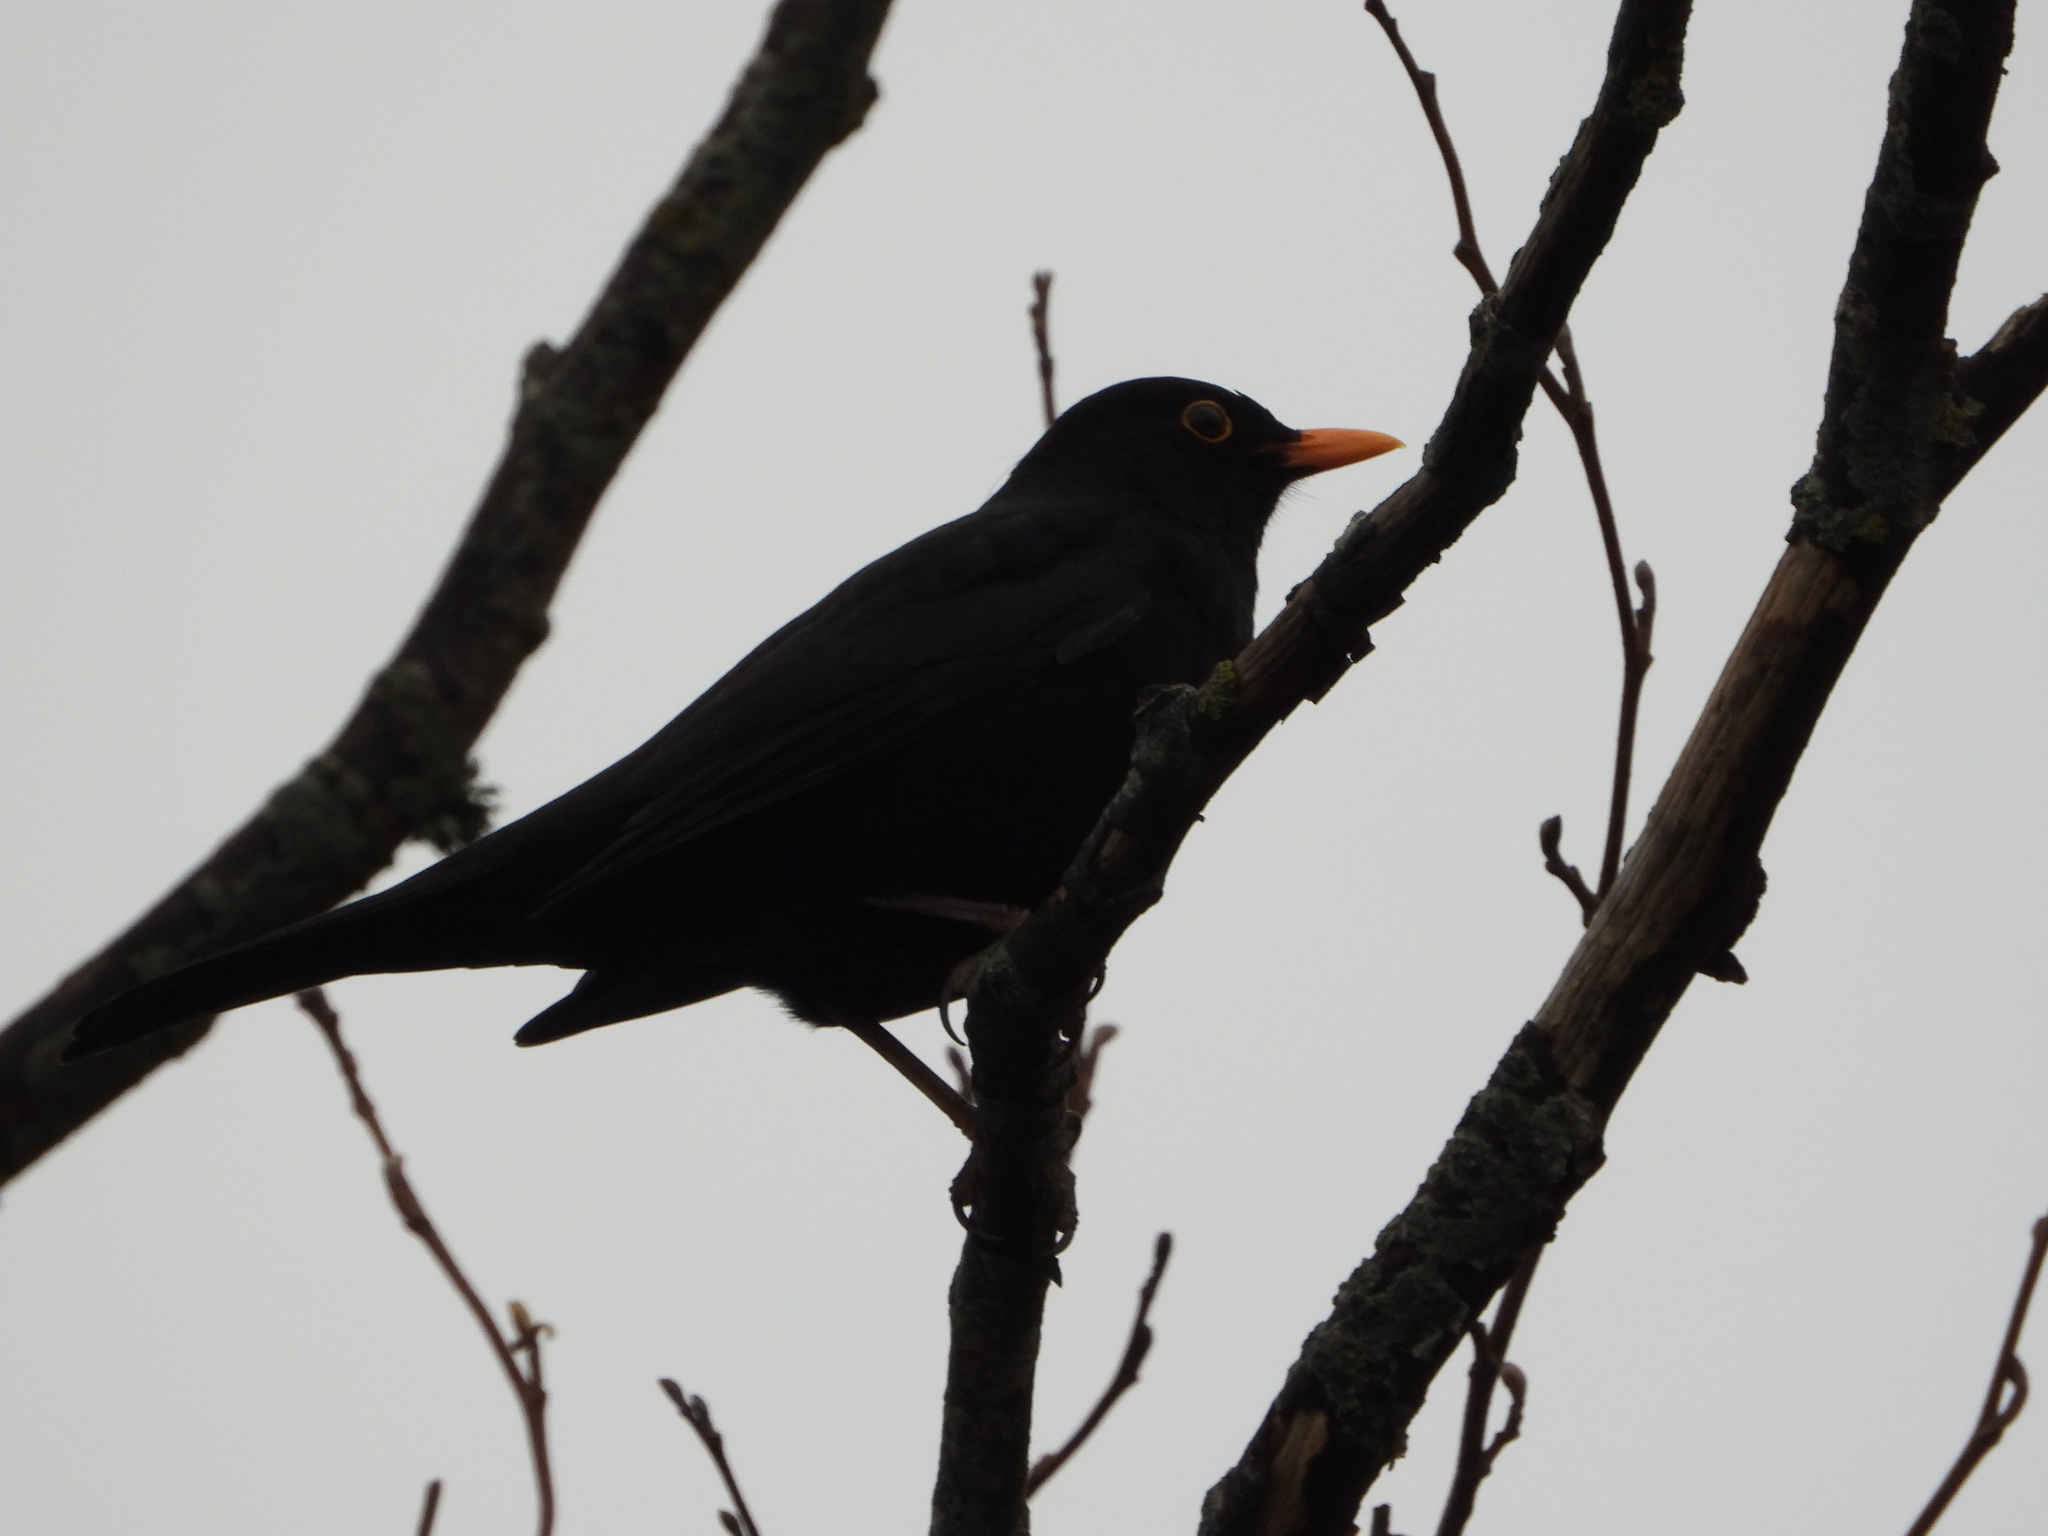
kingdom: Animalia
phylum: Chordata
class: Aves
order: Passeriformes
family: Turdidae
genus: Turdus
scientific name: Turdus merula
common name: Common blackbird
